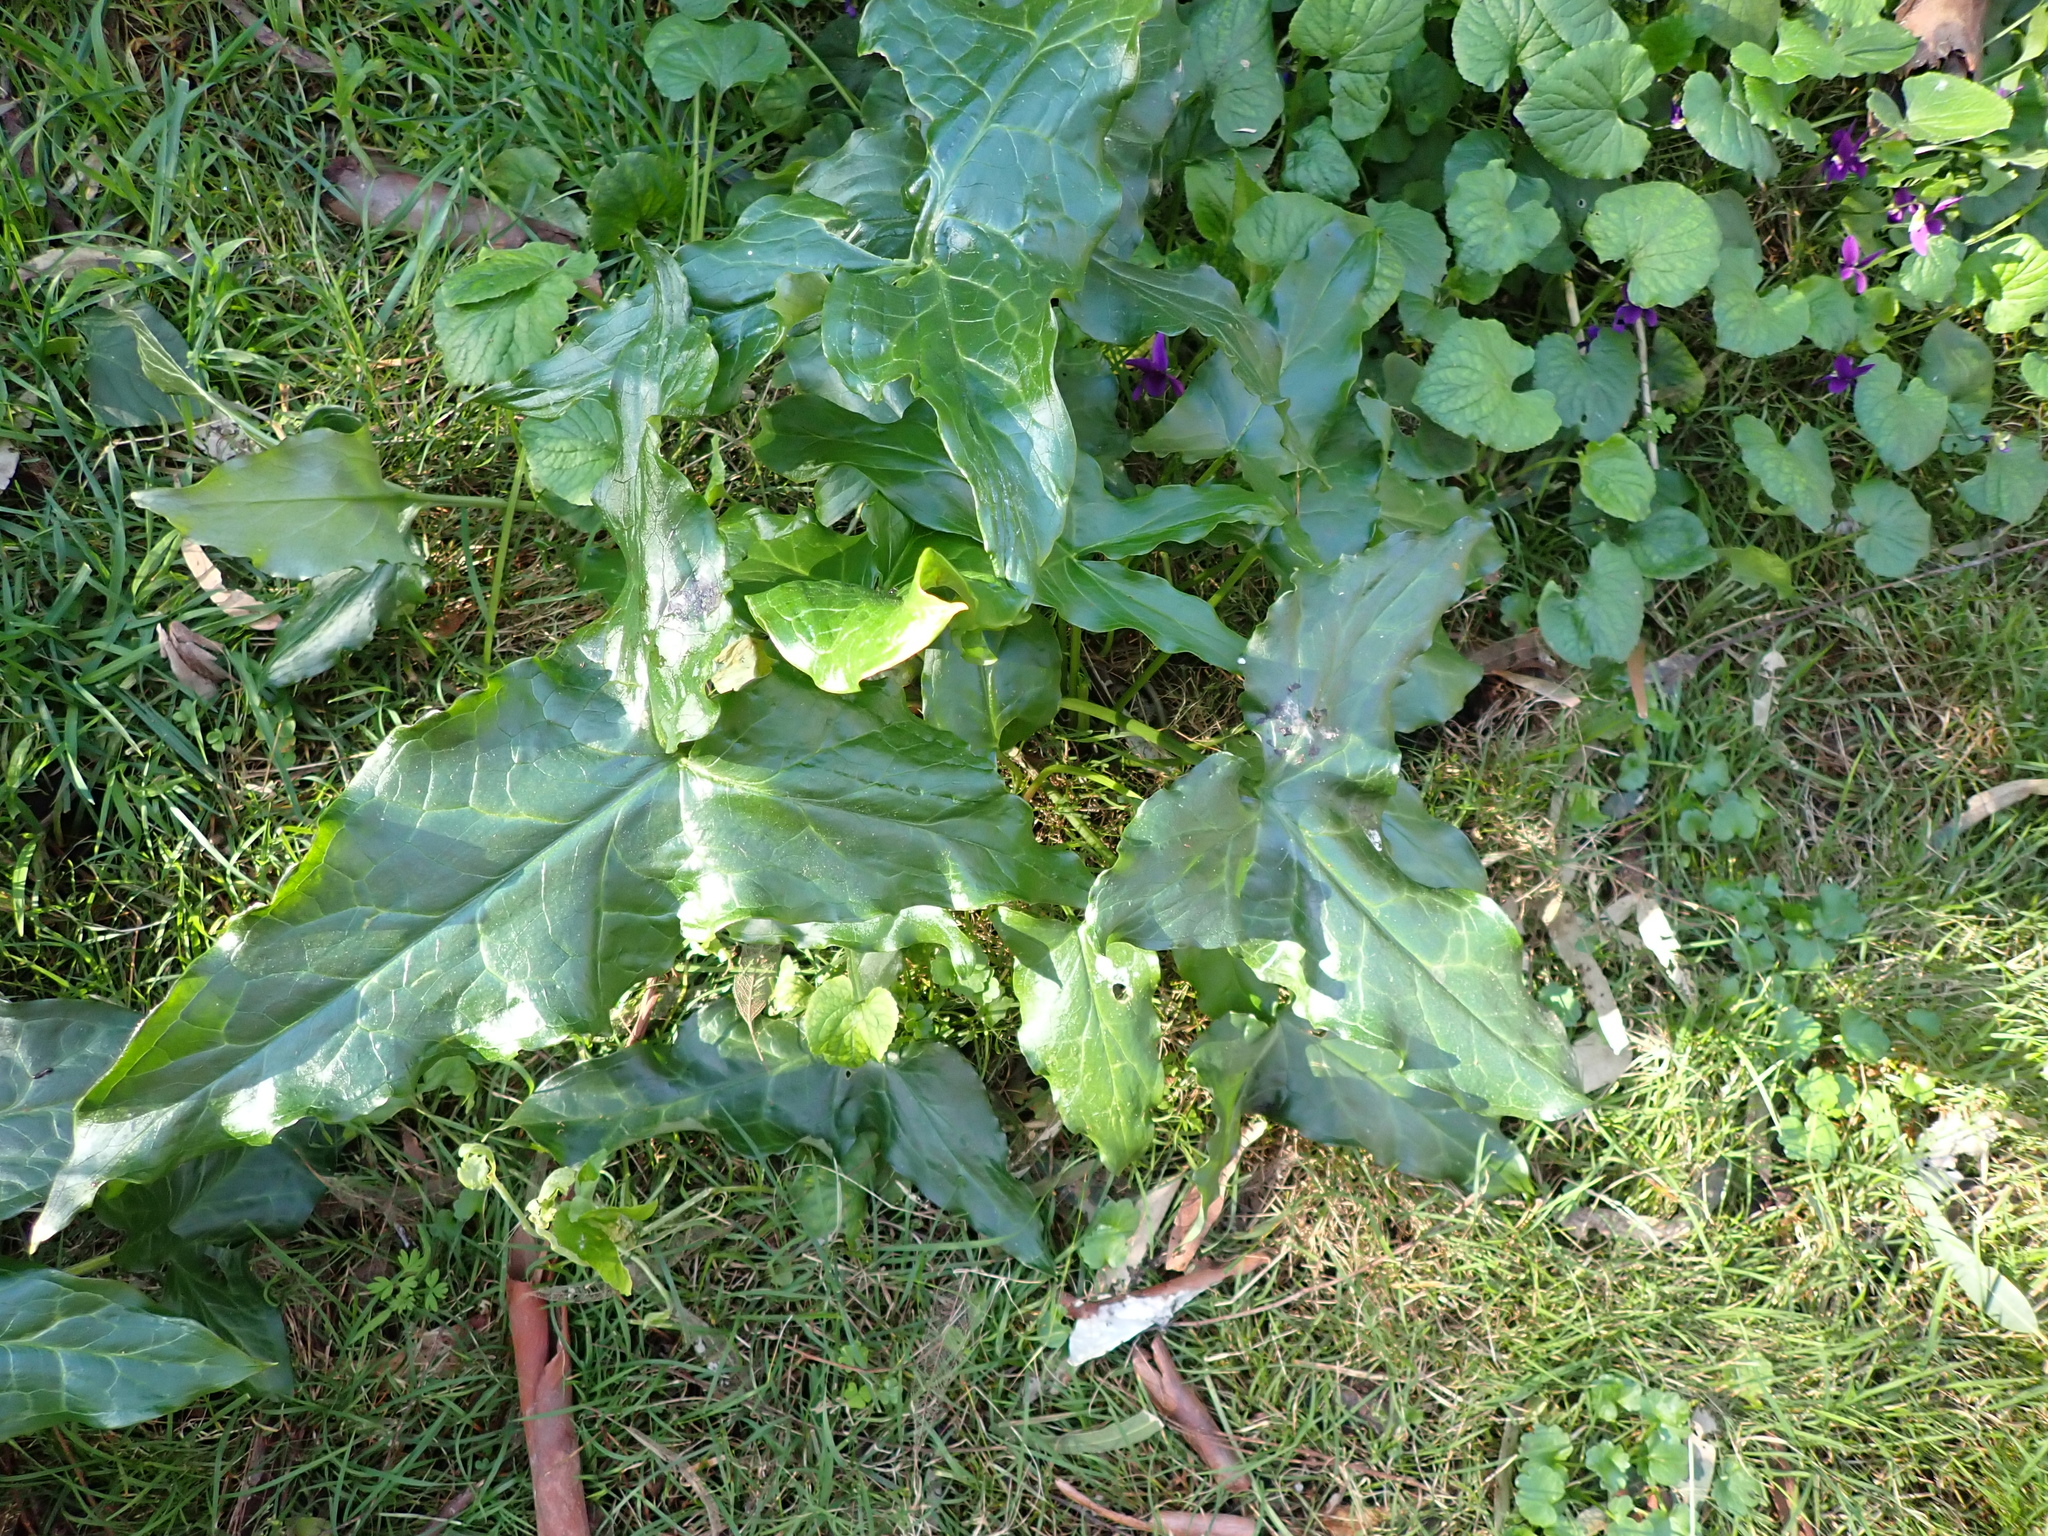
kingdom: Plantae
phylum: Tracheophyta
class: Liliopsida
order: Alismatales
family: Araceae
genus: Arum
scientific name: Arum italicum
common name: Italian lords-and-ladies
